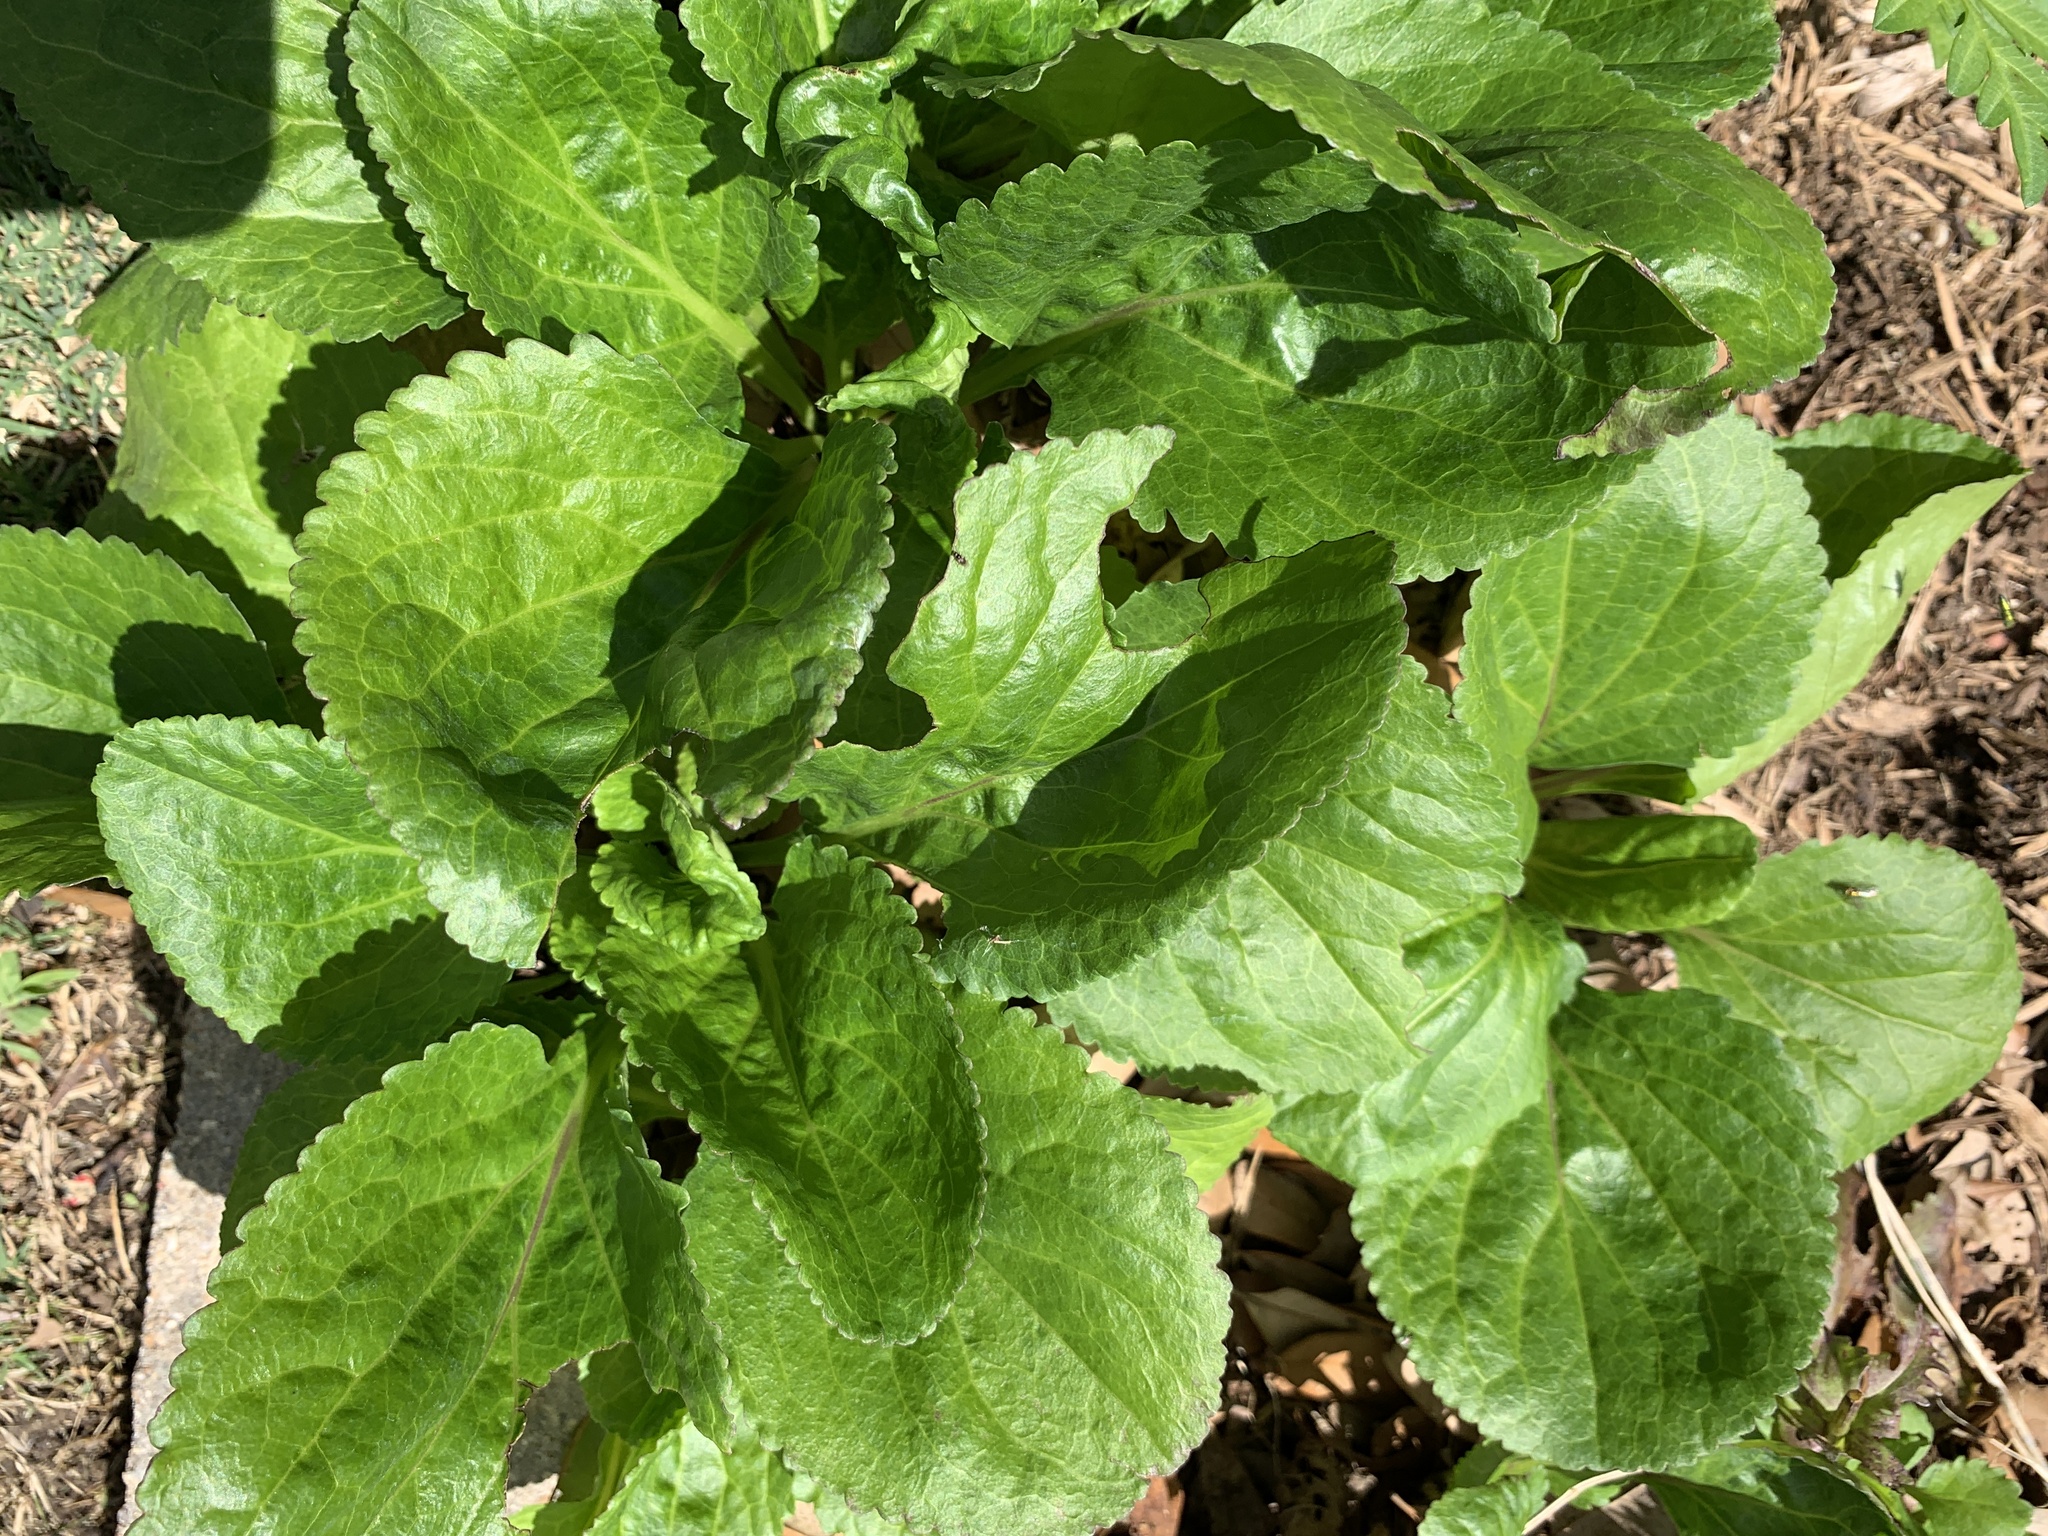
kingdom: Plantae
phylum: Tracheophyta
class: Magnoliopsida
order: Asterales
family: Asteraceae
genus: Packera
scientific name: Packera obovata
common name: Round-leaf ragwort
